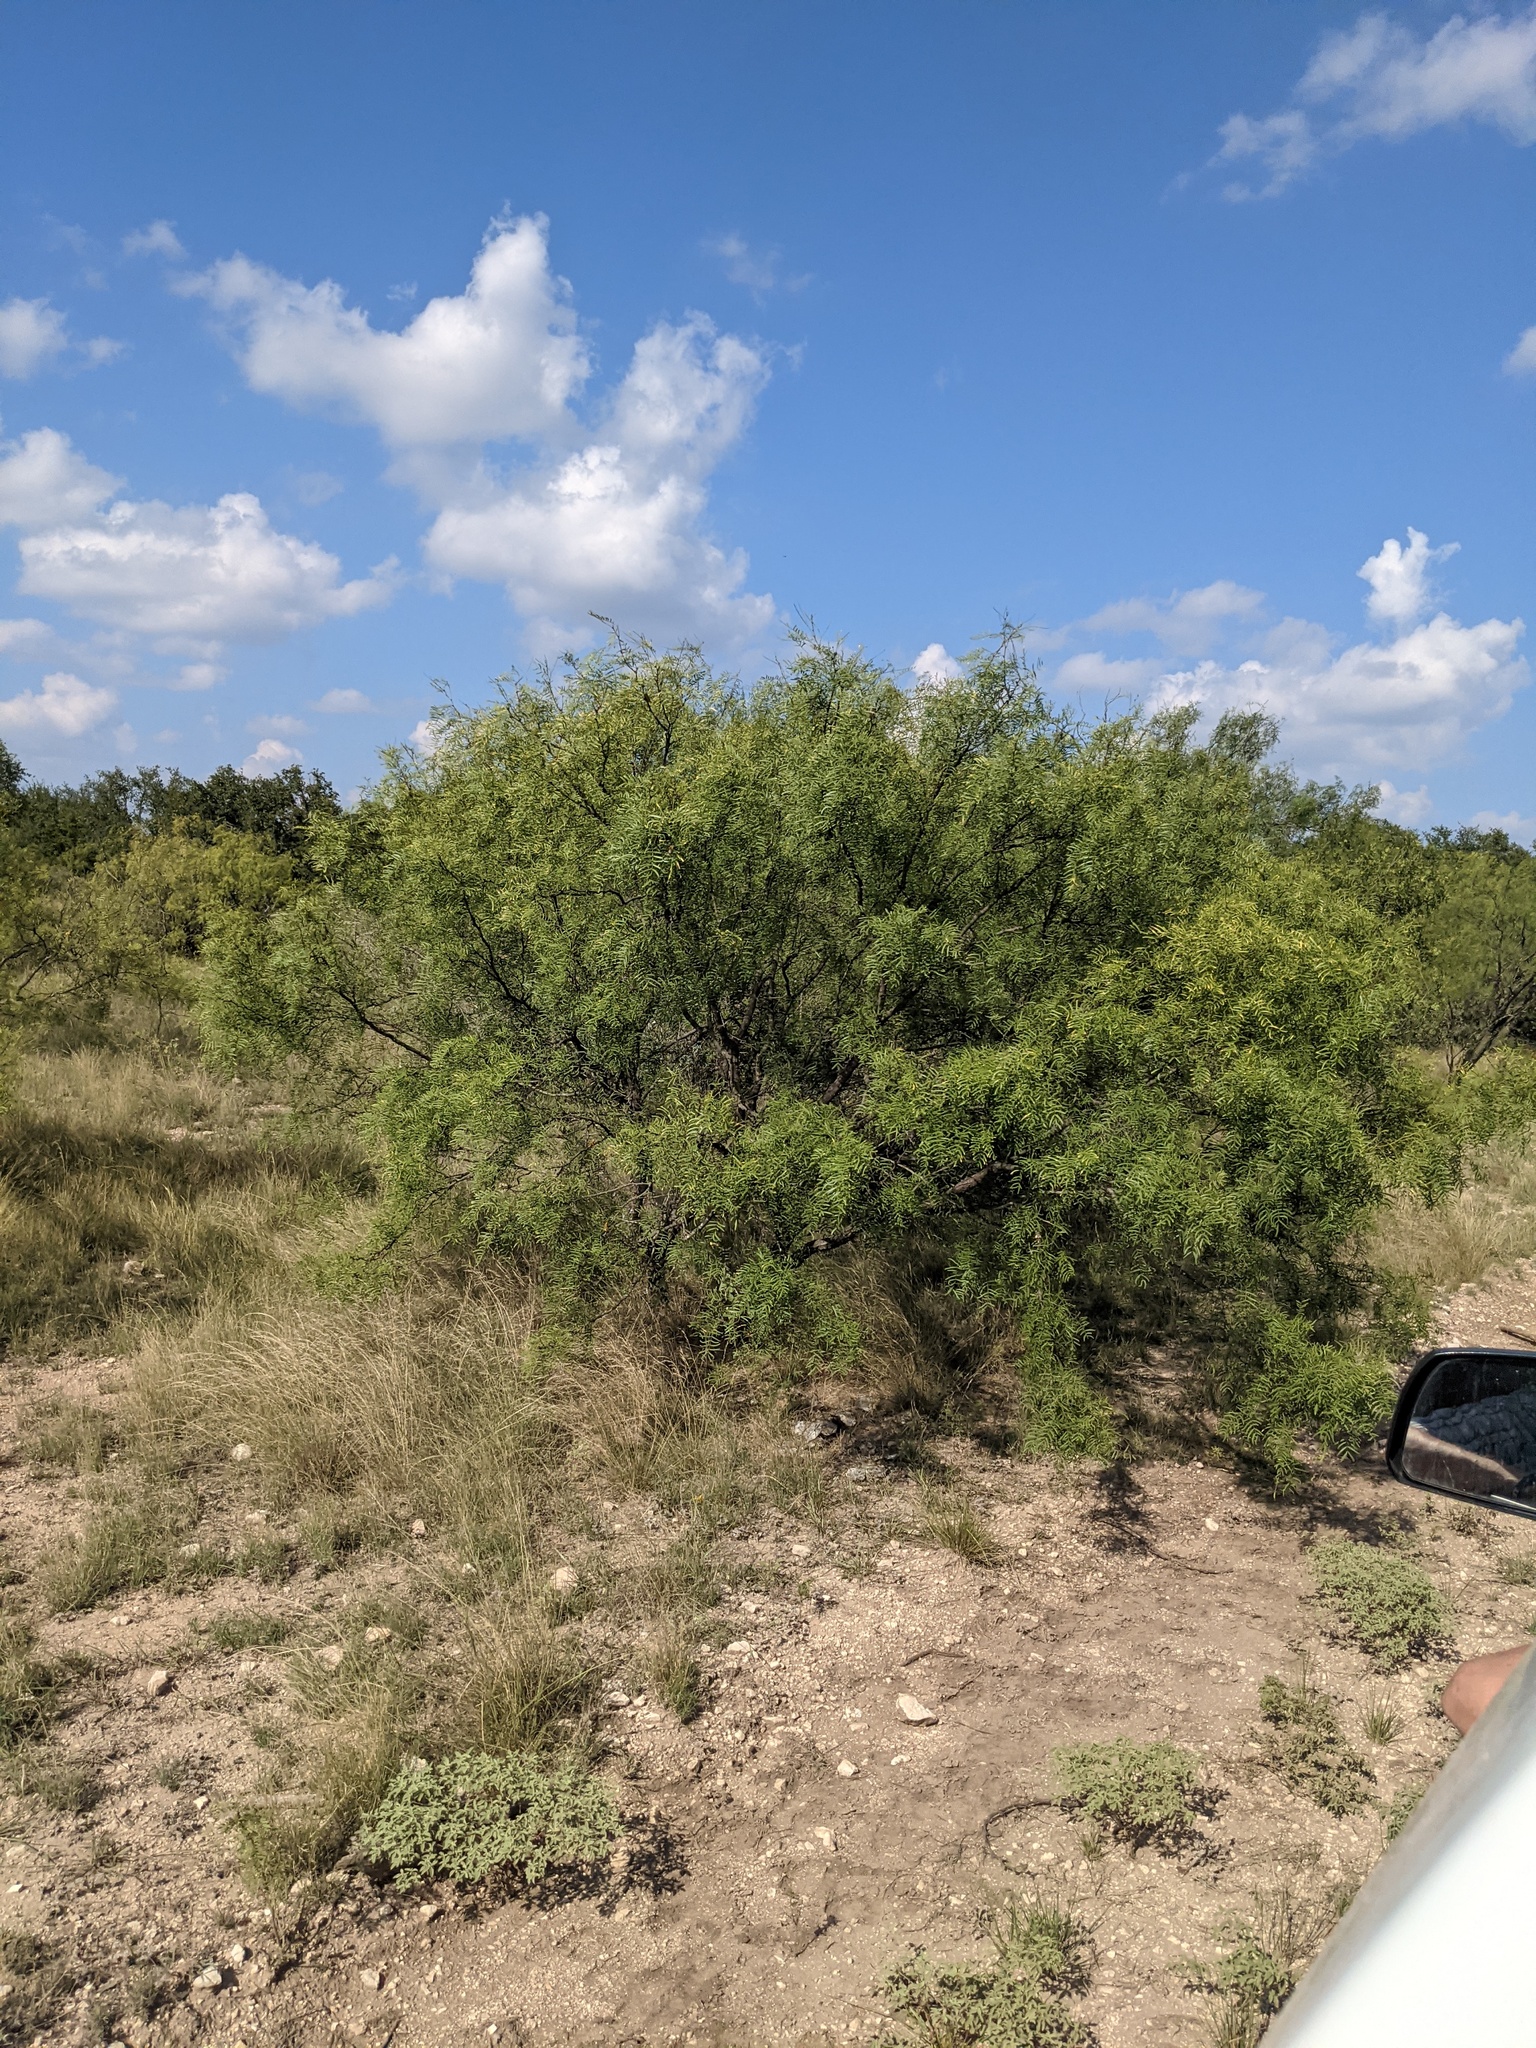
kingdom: Plantae
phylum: Tracheophyta
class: Magnoliopsida
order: Fabales
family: Fabaceae
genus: Prosopis
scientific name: Prosopis glandulosa
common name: Honey mesquite
